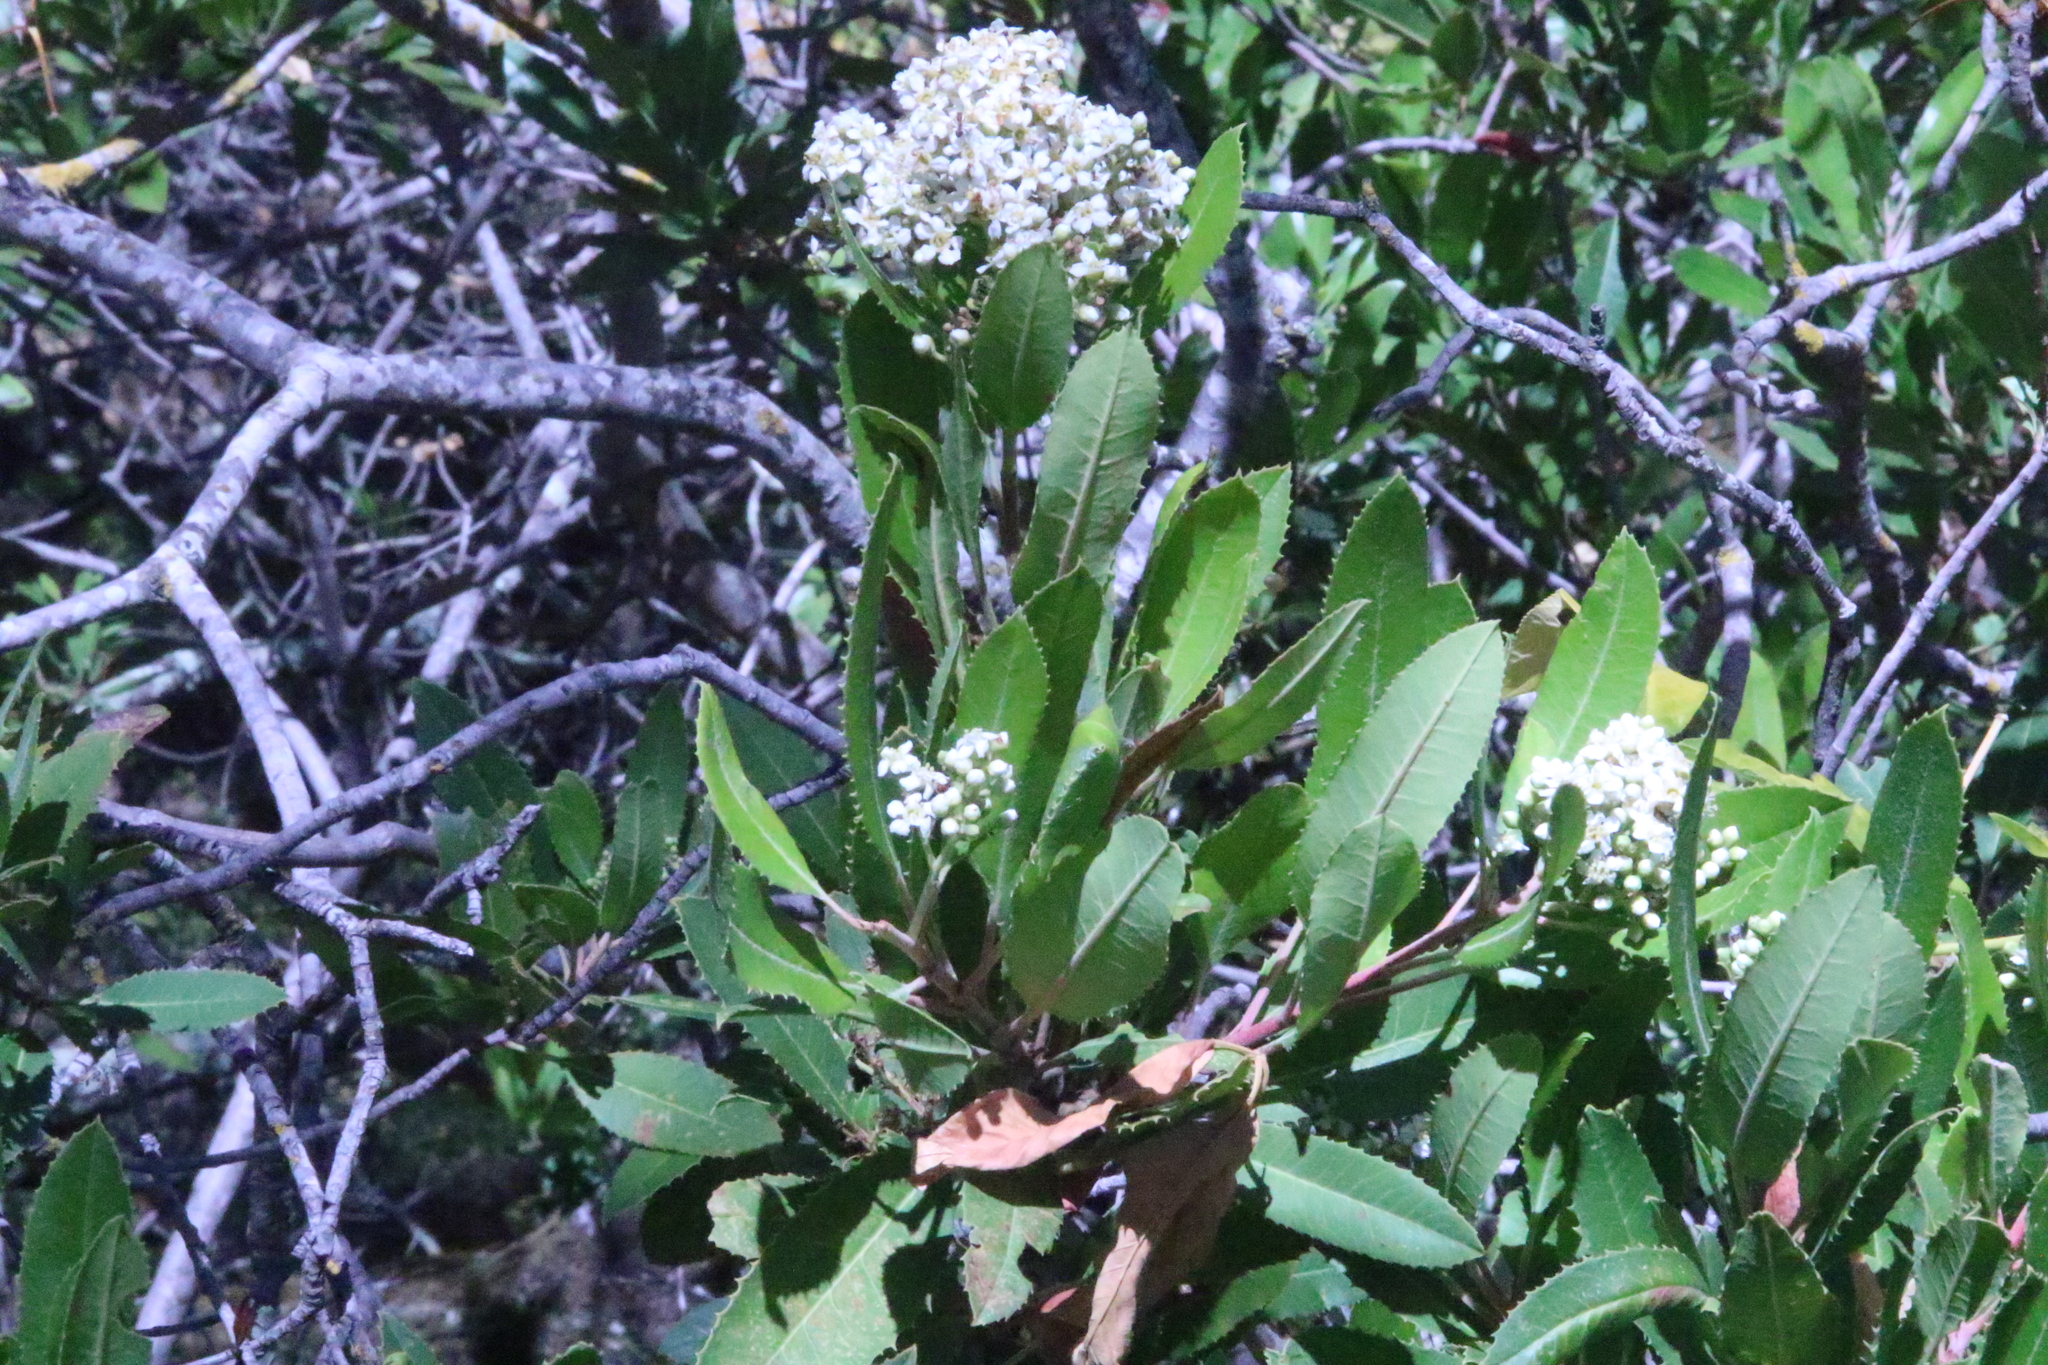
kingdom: Animalia
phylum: Arthropoda
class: Insecta
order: Diptera
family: Cecidomyiidae
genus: Asphondylia
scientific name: Asphondylia photiniae
